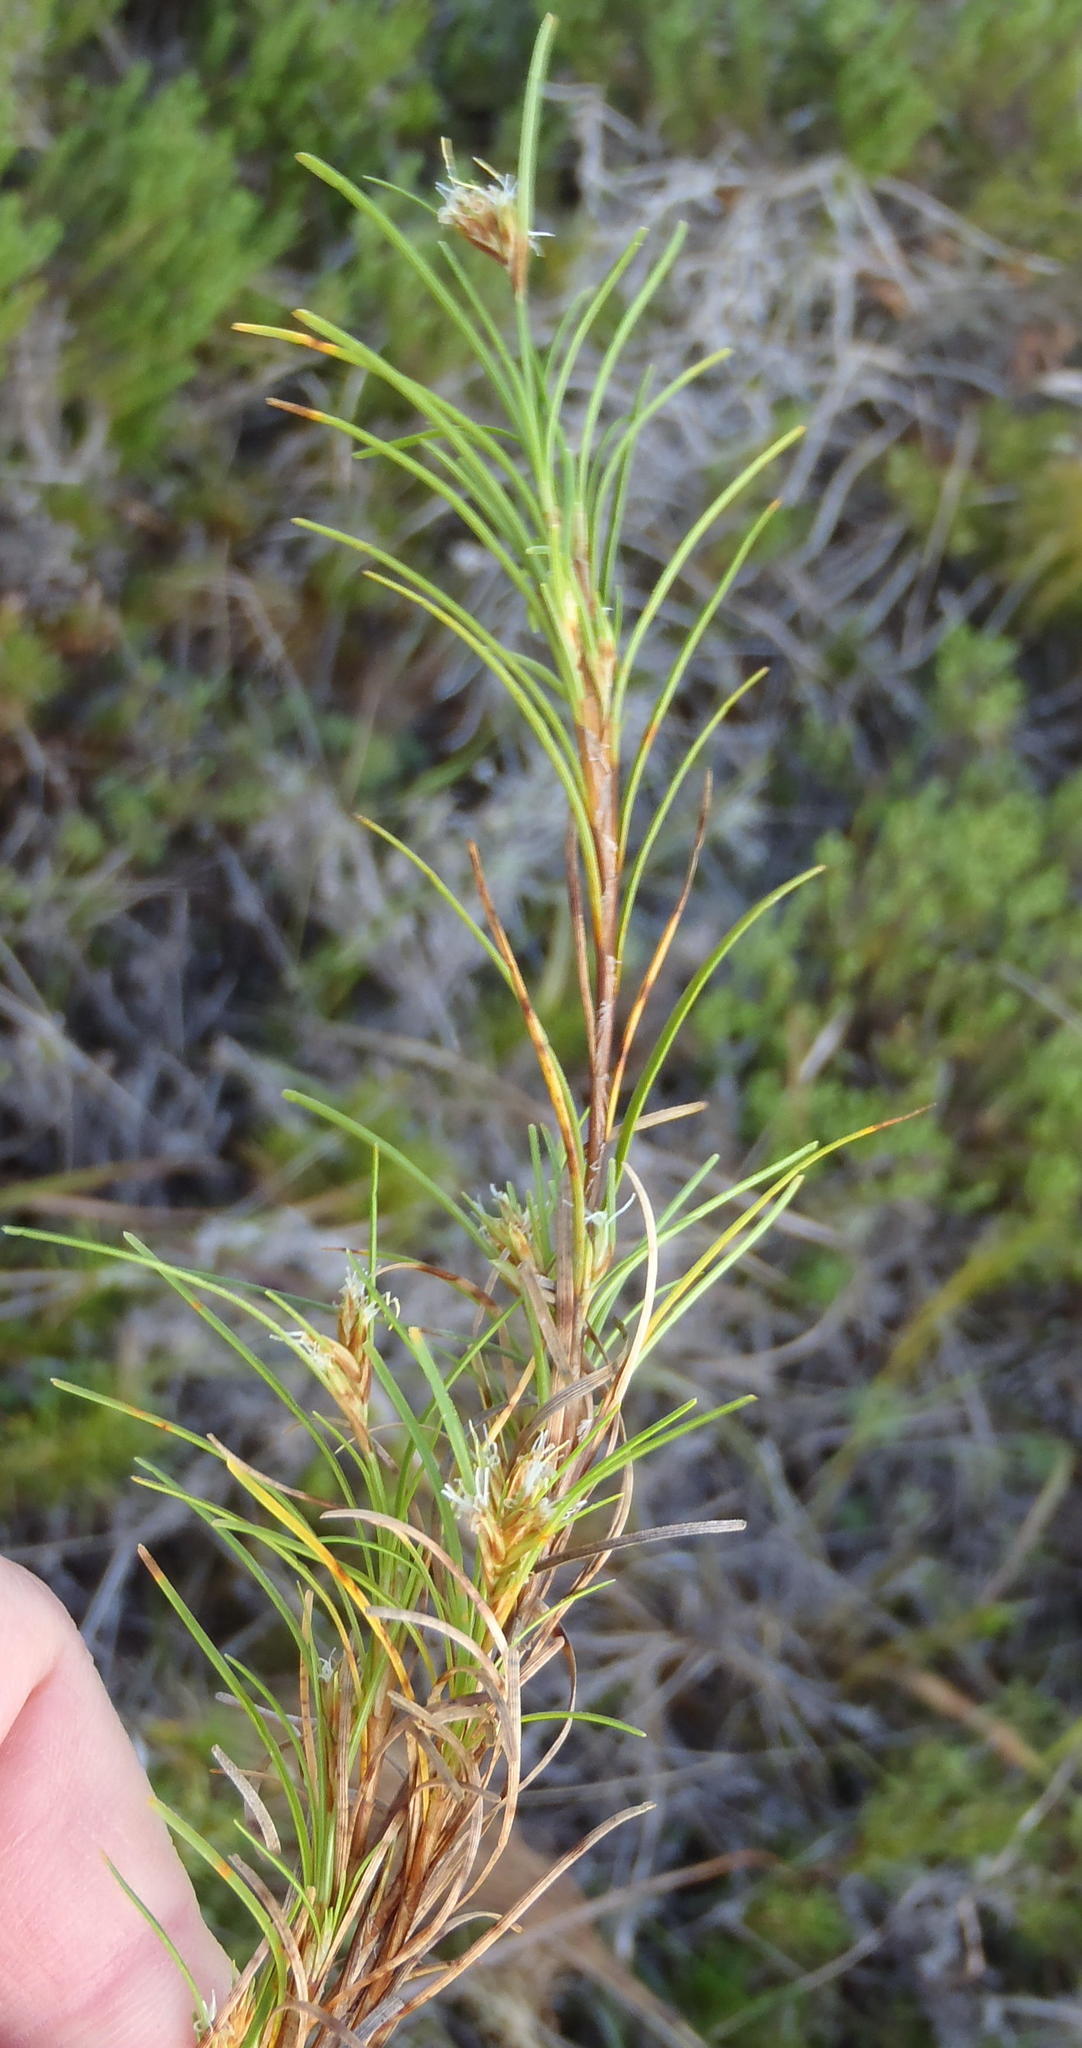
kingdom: Plantae
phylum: Tracheophyta
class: Liliopsida
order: Poales
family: Cyperaceae
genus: Ficinia
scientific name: Ficinia ramosissima
